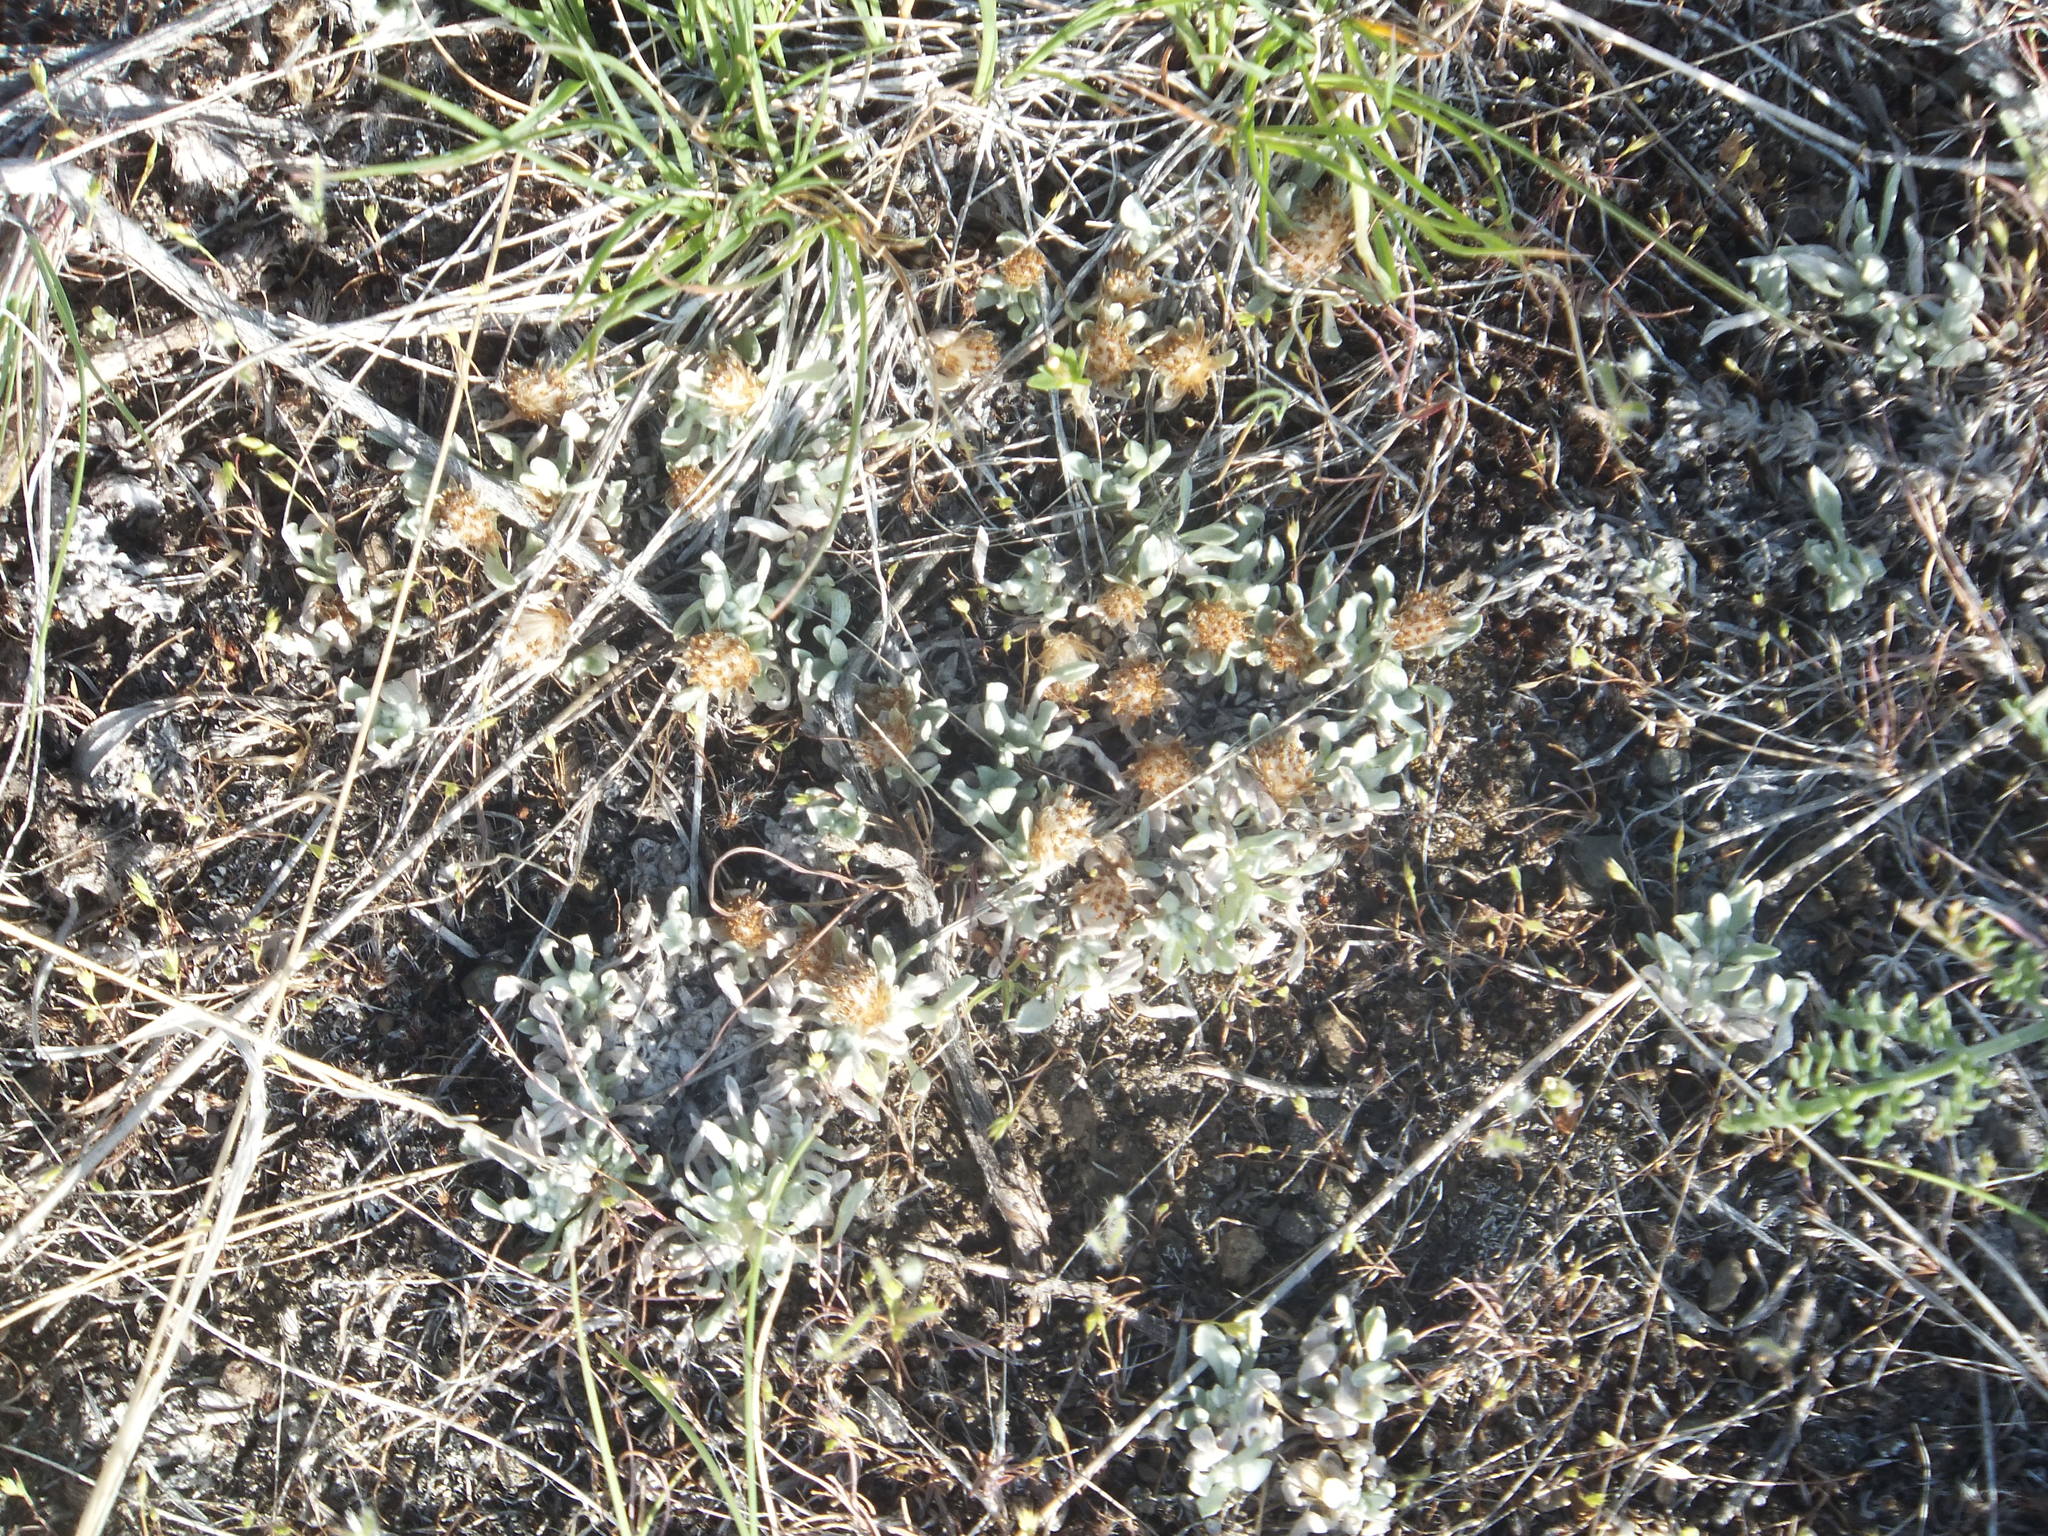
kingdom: Plantae
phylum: Tracheophyta
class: Magnoliopsida
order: Asterales
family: Asteraceae
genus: Antennaria
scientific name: Antennaria dimorpha
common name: Cushion pussytoes
